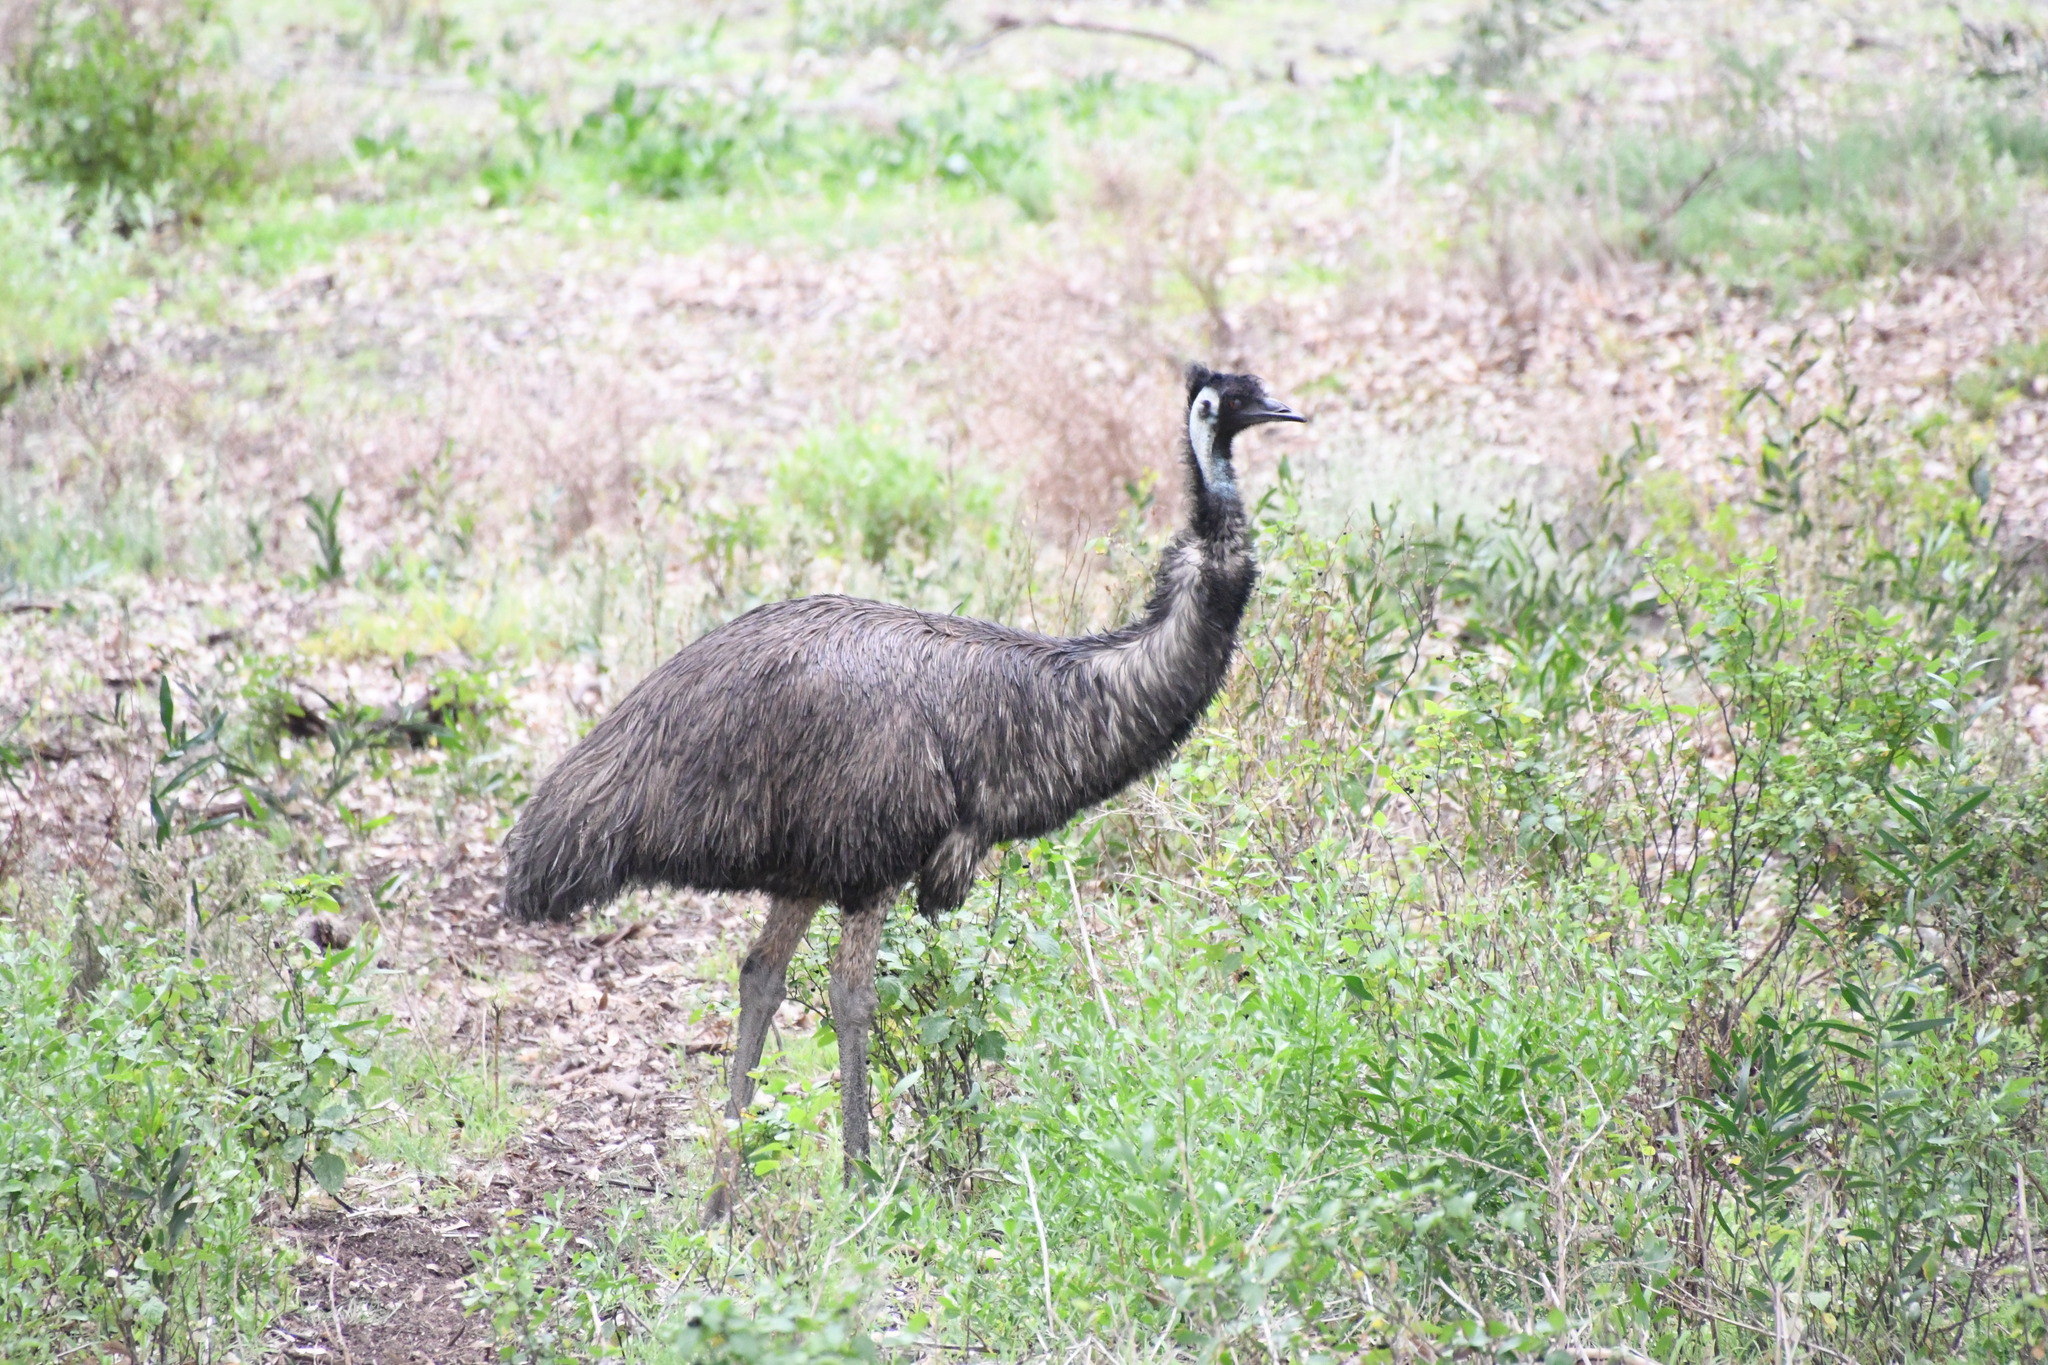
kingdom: Animalia
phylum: Chordata
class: Aves
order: Casuariiformes
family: Dromaiidae
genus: Dromaius
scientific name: Dromaius novaehollandiae
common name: Emu
